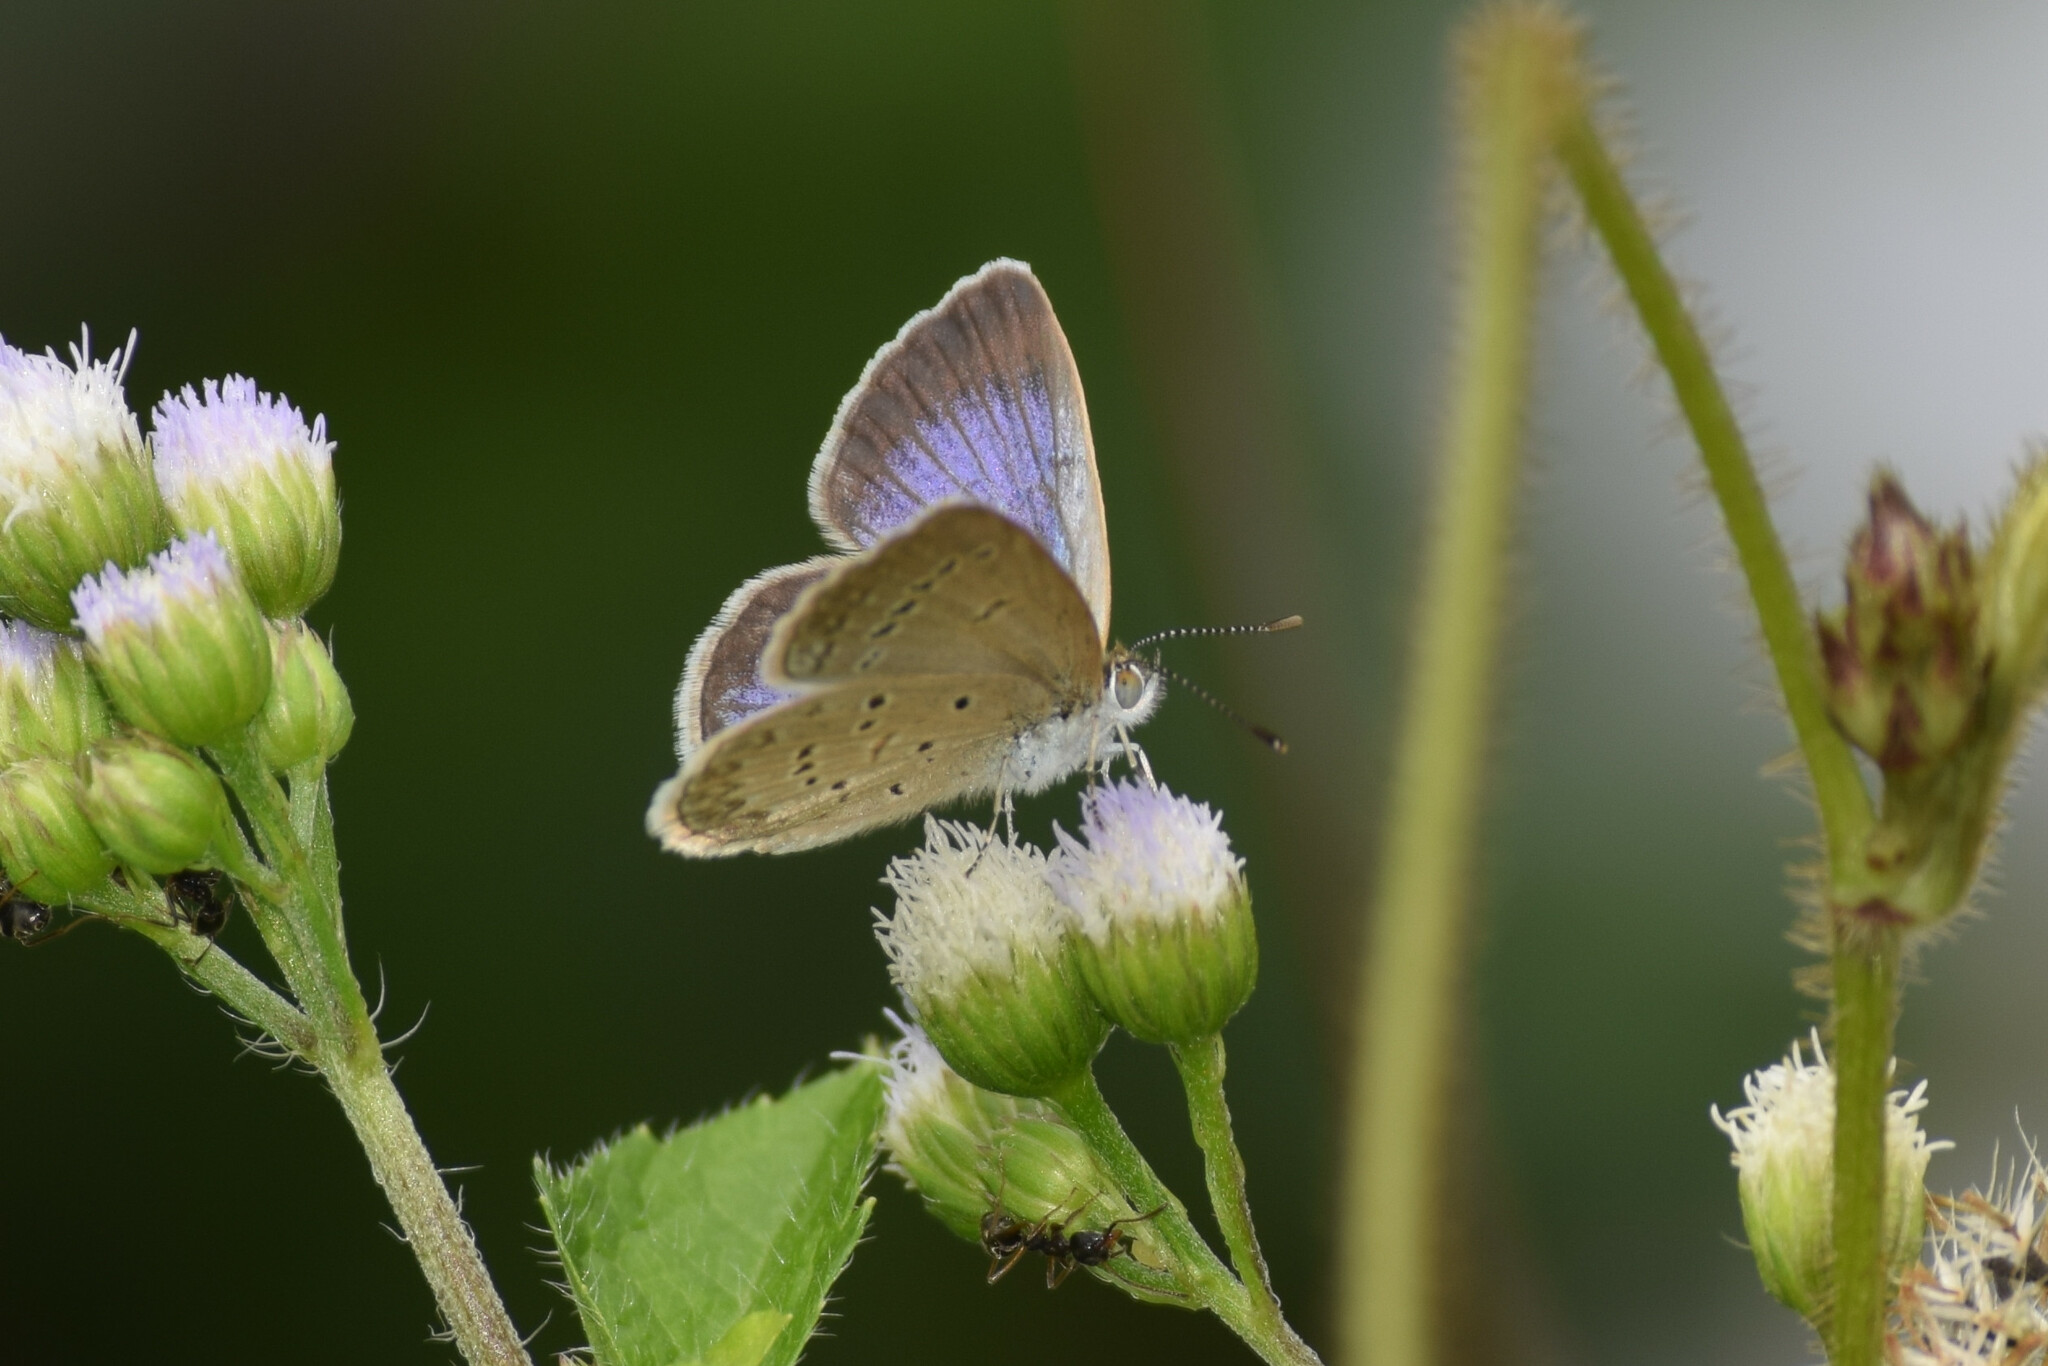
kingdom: Animalia
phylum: Arthropoda
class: Insecta
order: Lepidoptera
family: Lycaenidae
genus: Zizina
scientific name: Zizina otis
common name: Lesser grass blue
